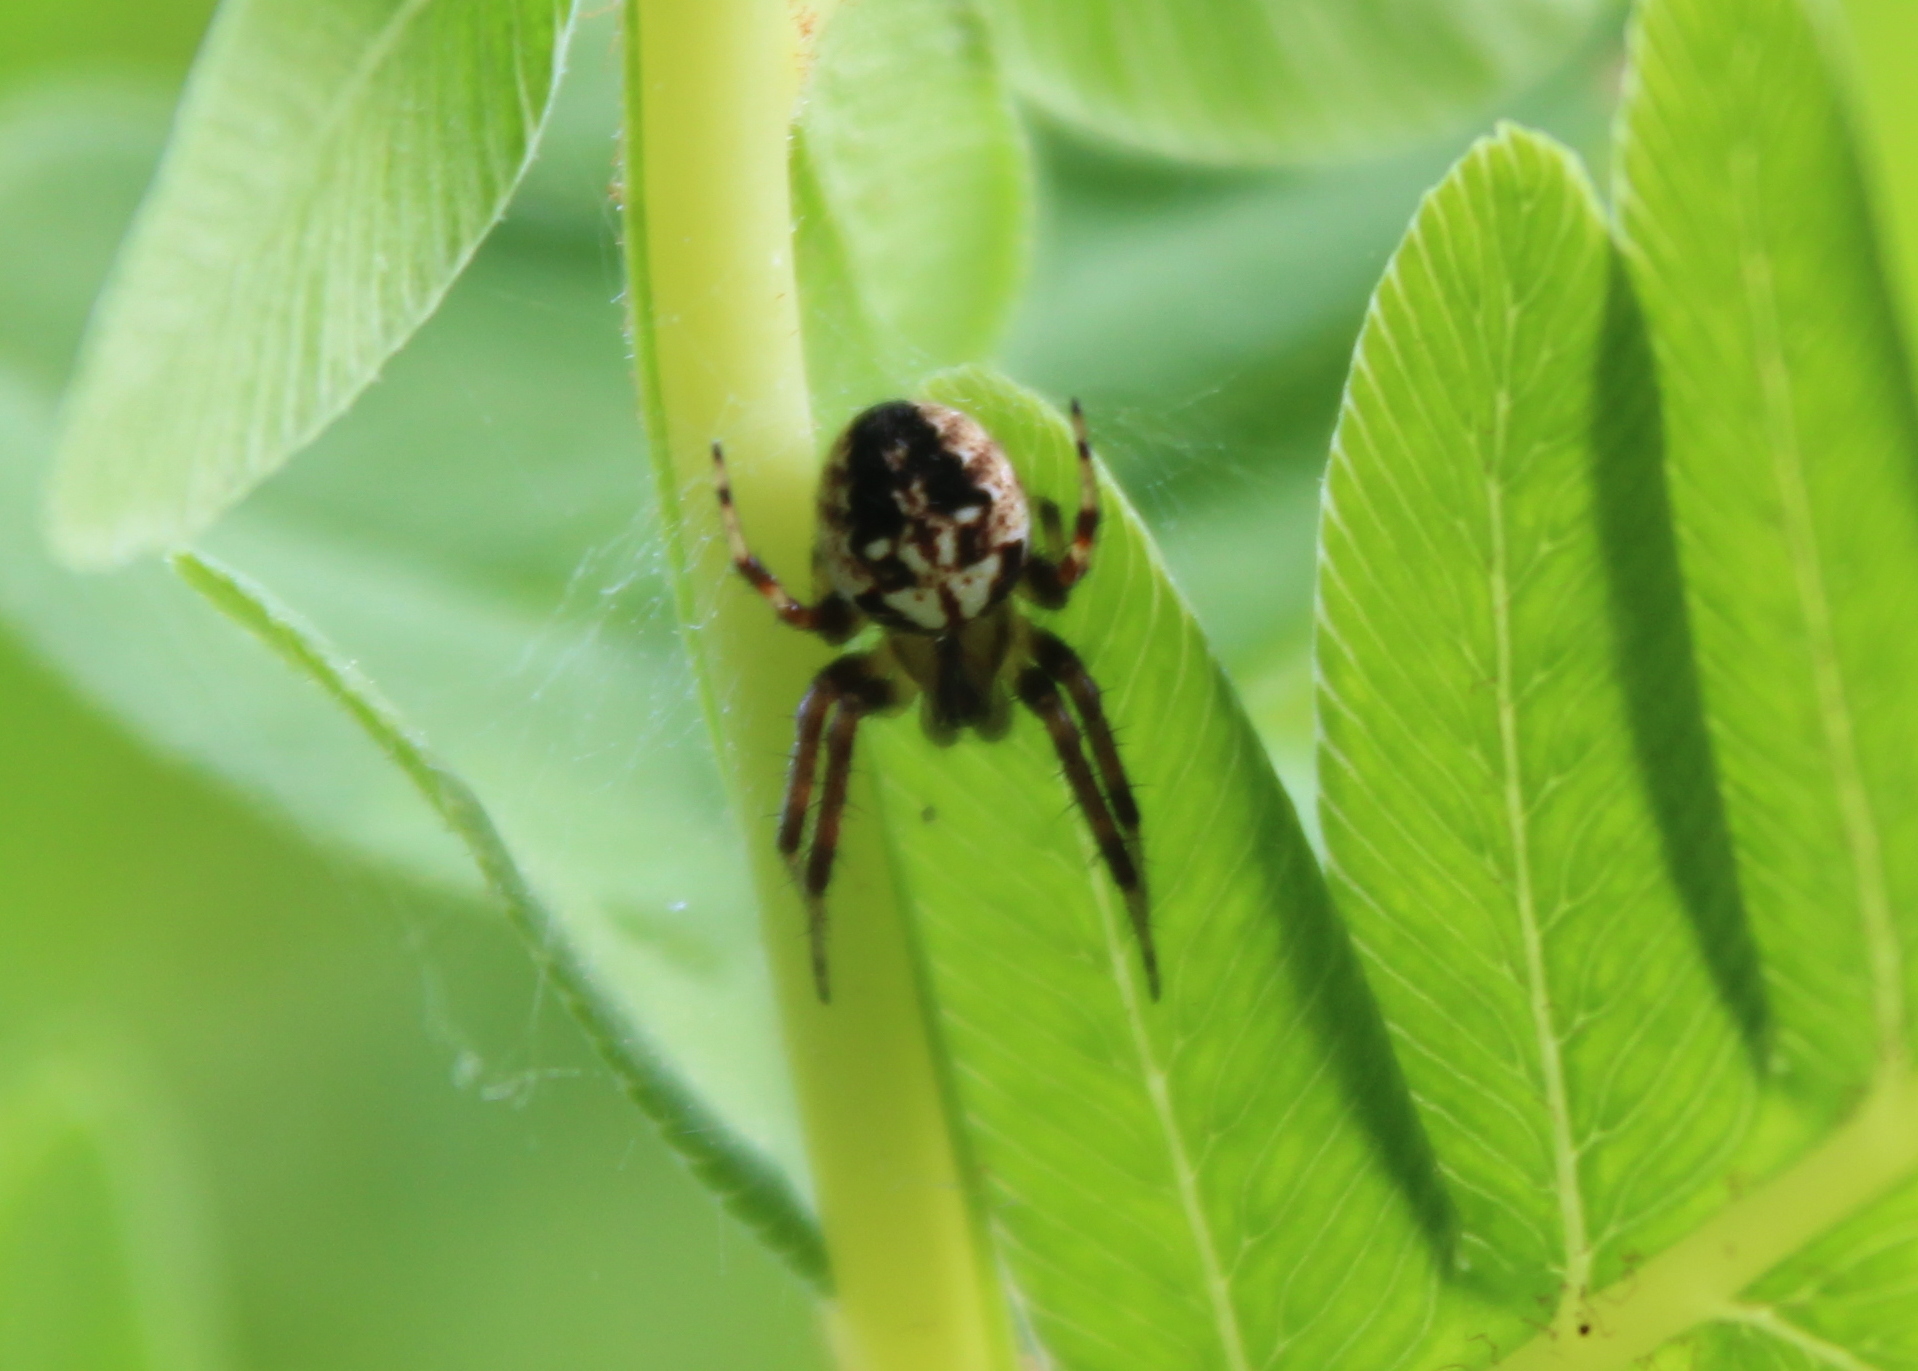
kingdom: Animalia
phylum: Arthropoda
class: Arachnida
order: Araneae
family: Araneidae
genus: Neoscona
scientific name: Neoscona arabesca
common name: Orb weavers
